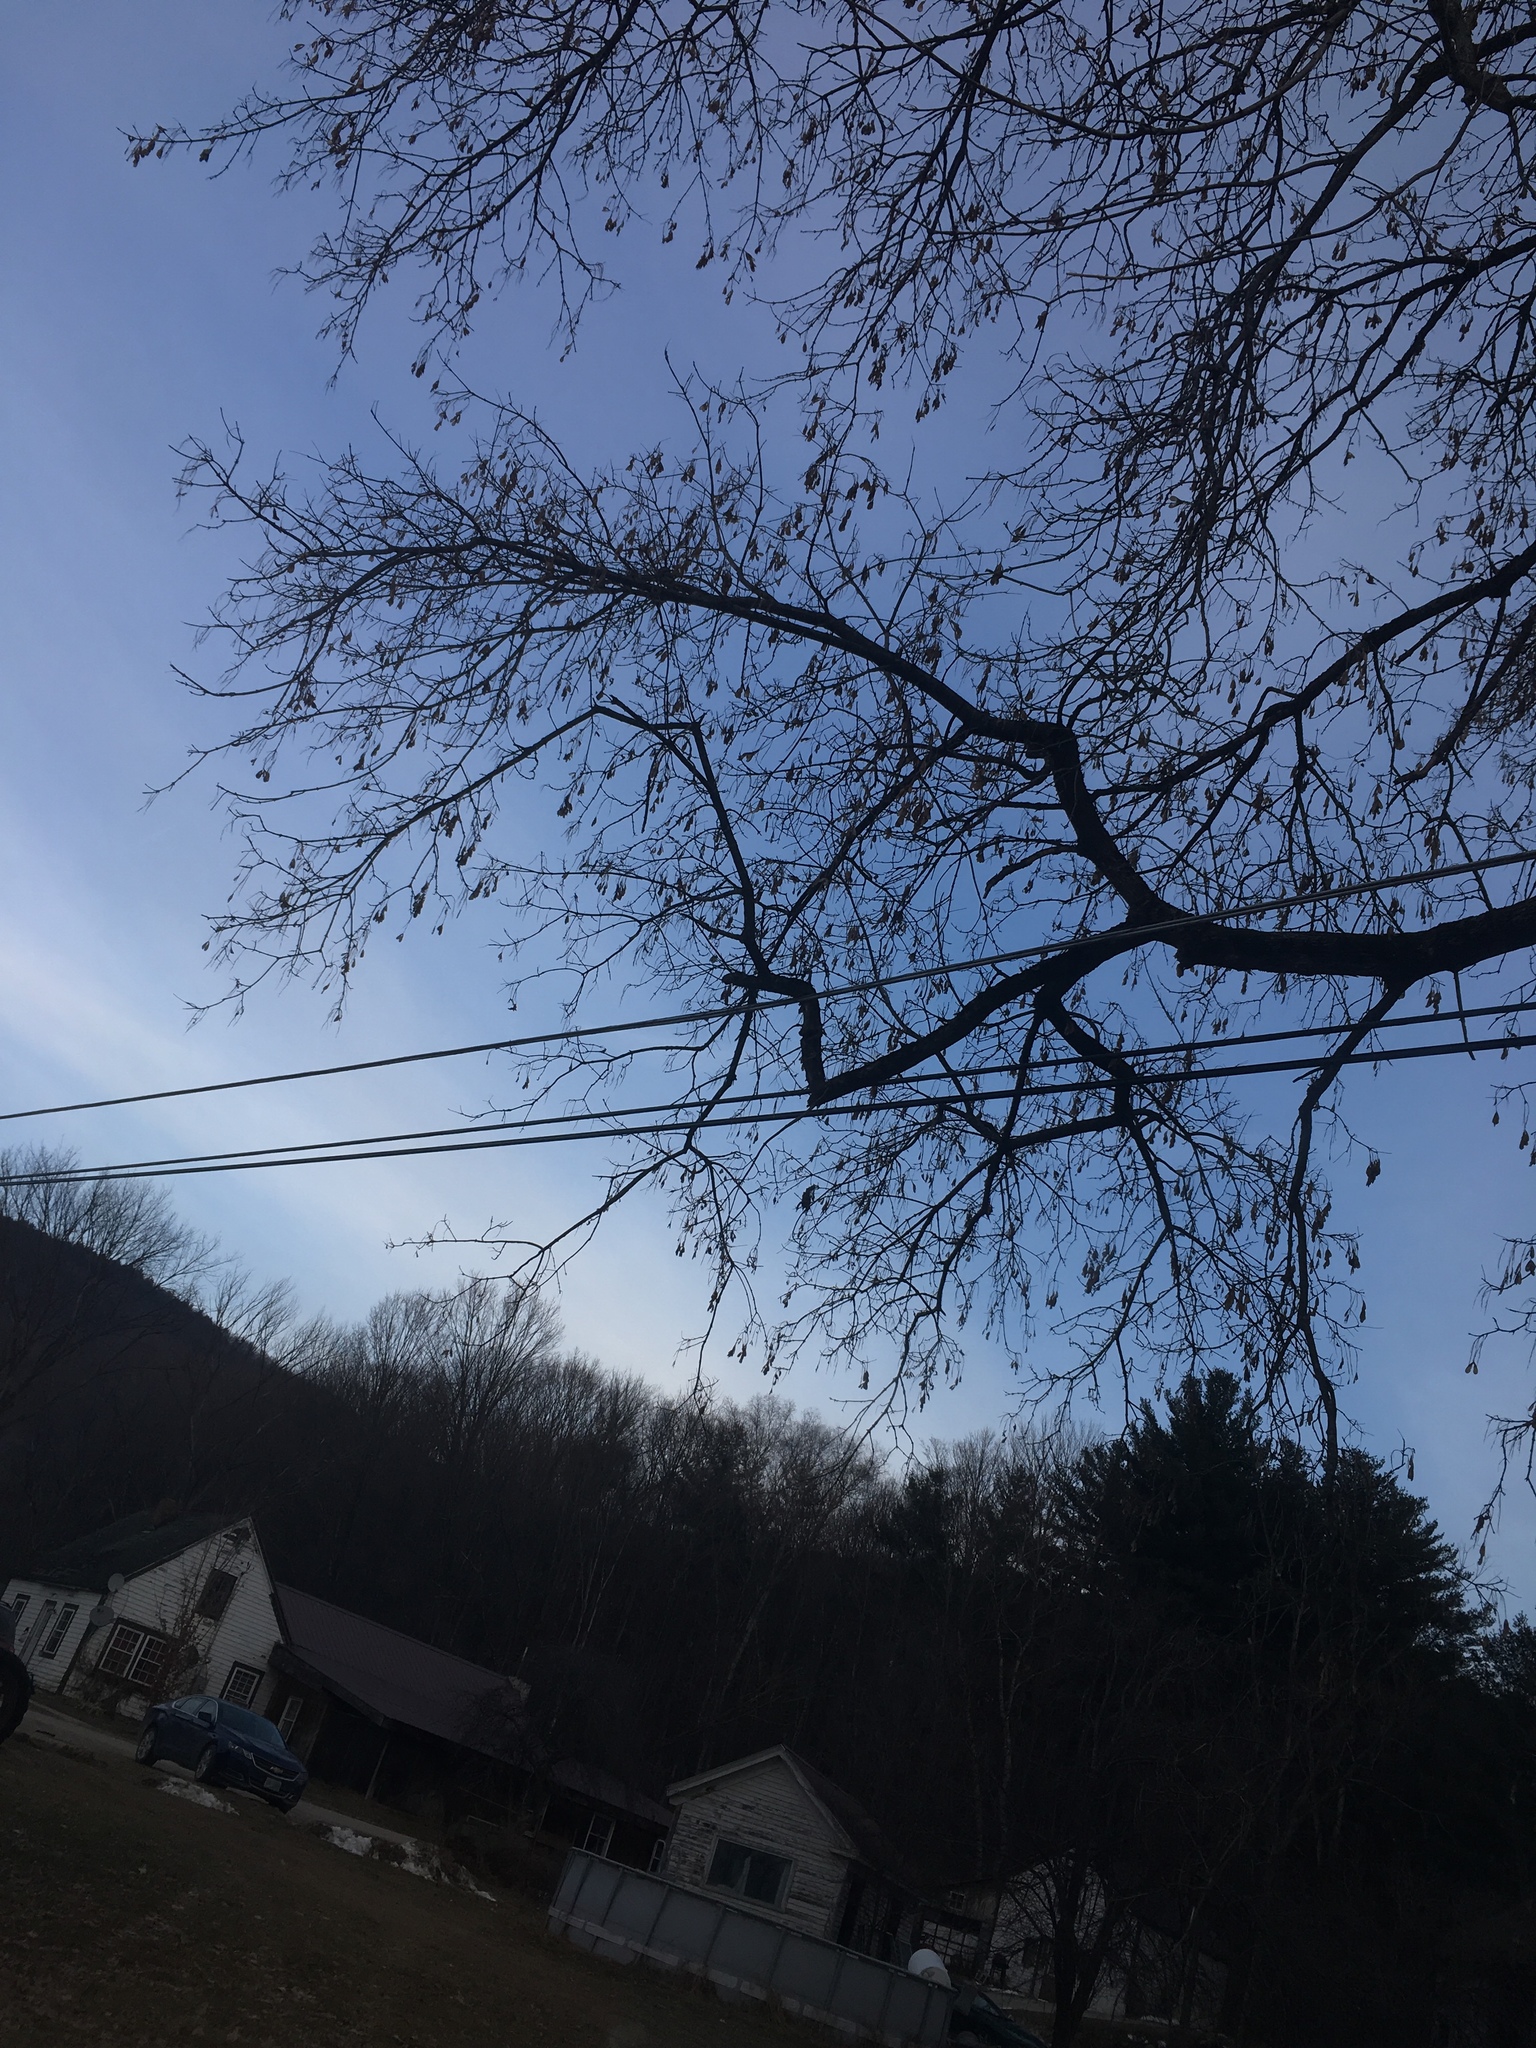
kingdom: Plantae
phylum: Tracheophyta
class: Magnoliopsida
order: Sapindales
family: Sapindaceae
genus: Acer
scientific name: Acer negundo
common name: Ashleaf maple
